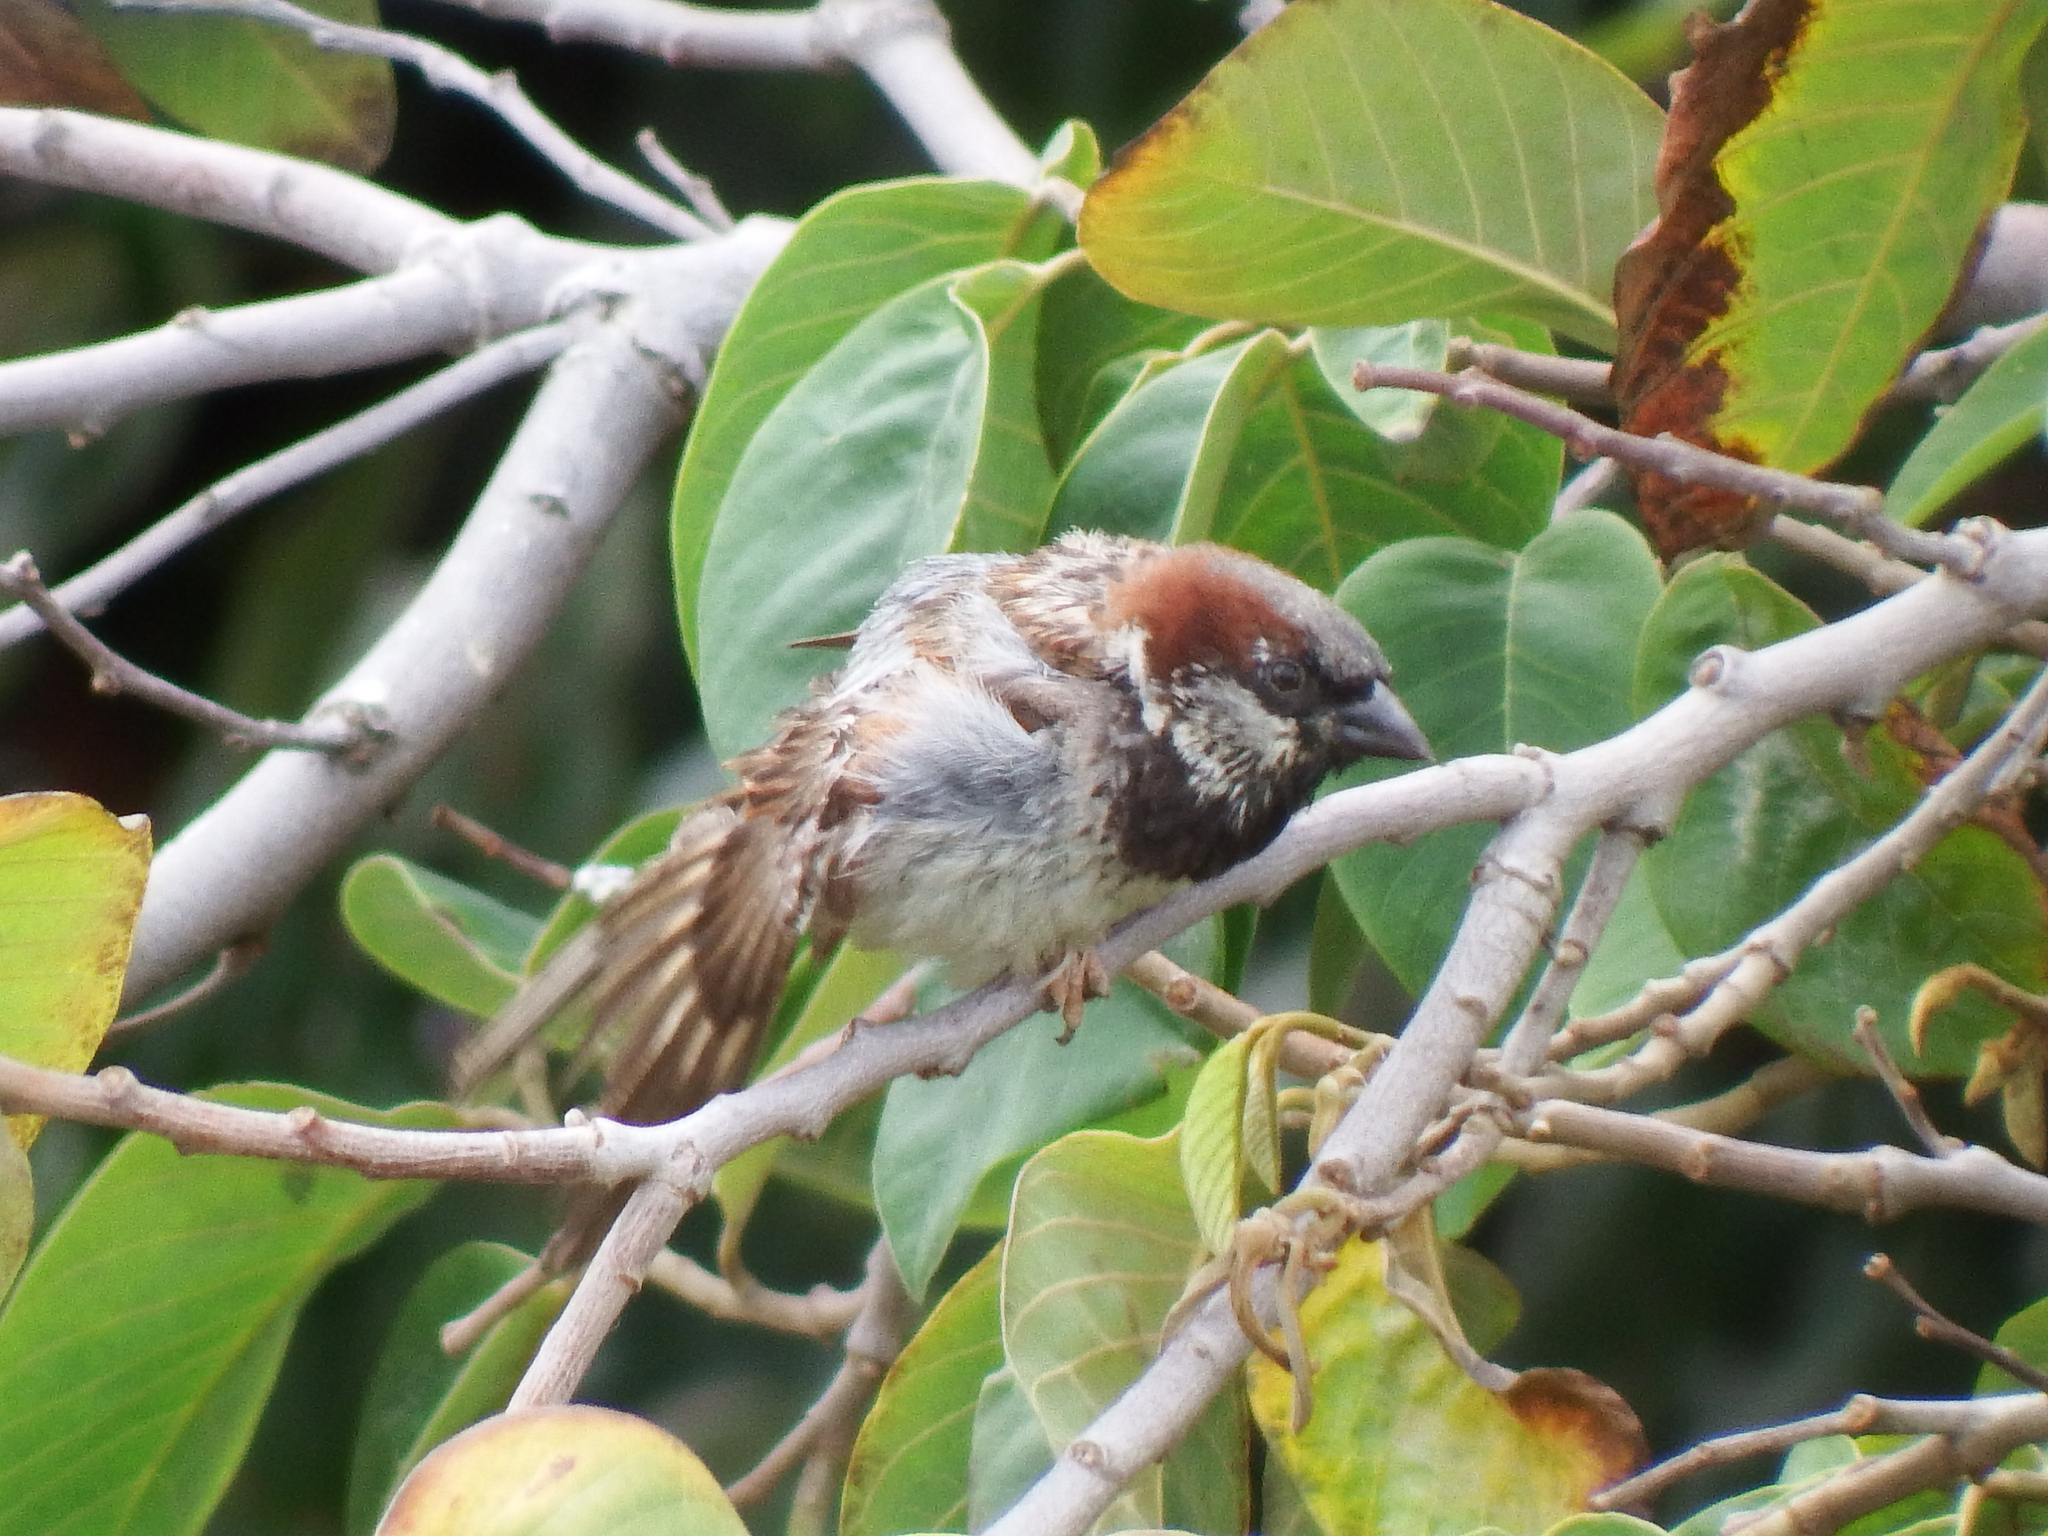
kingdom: Animalia
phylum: Chordata
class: Aves
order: Passeriformes
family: Passeridae
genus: Passer
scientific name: Passer domesticus
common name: House sparrow
